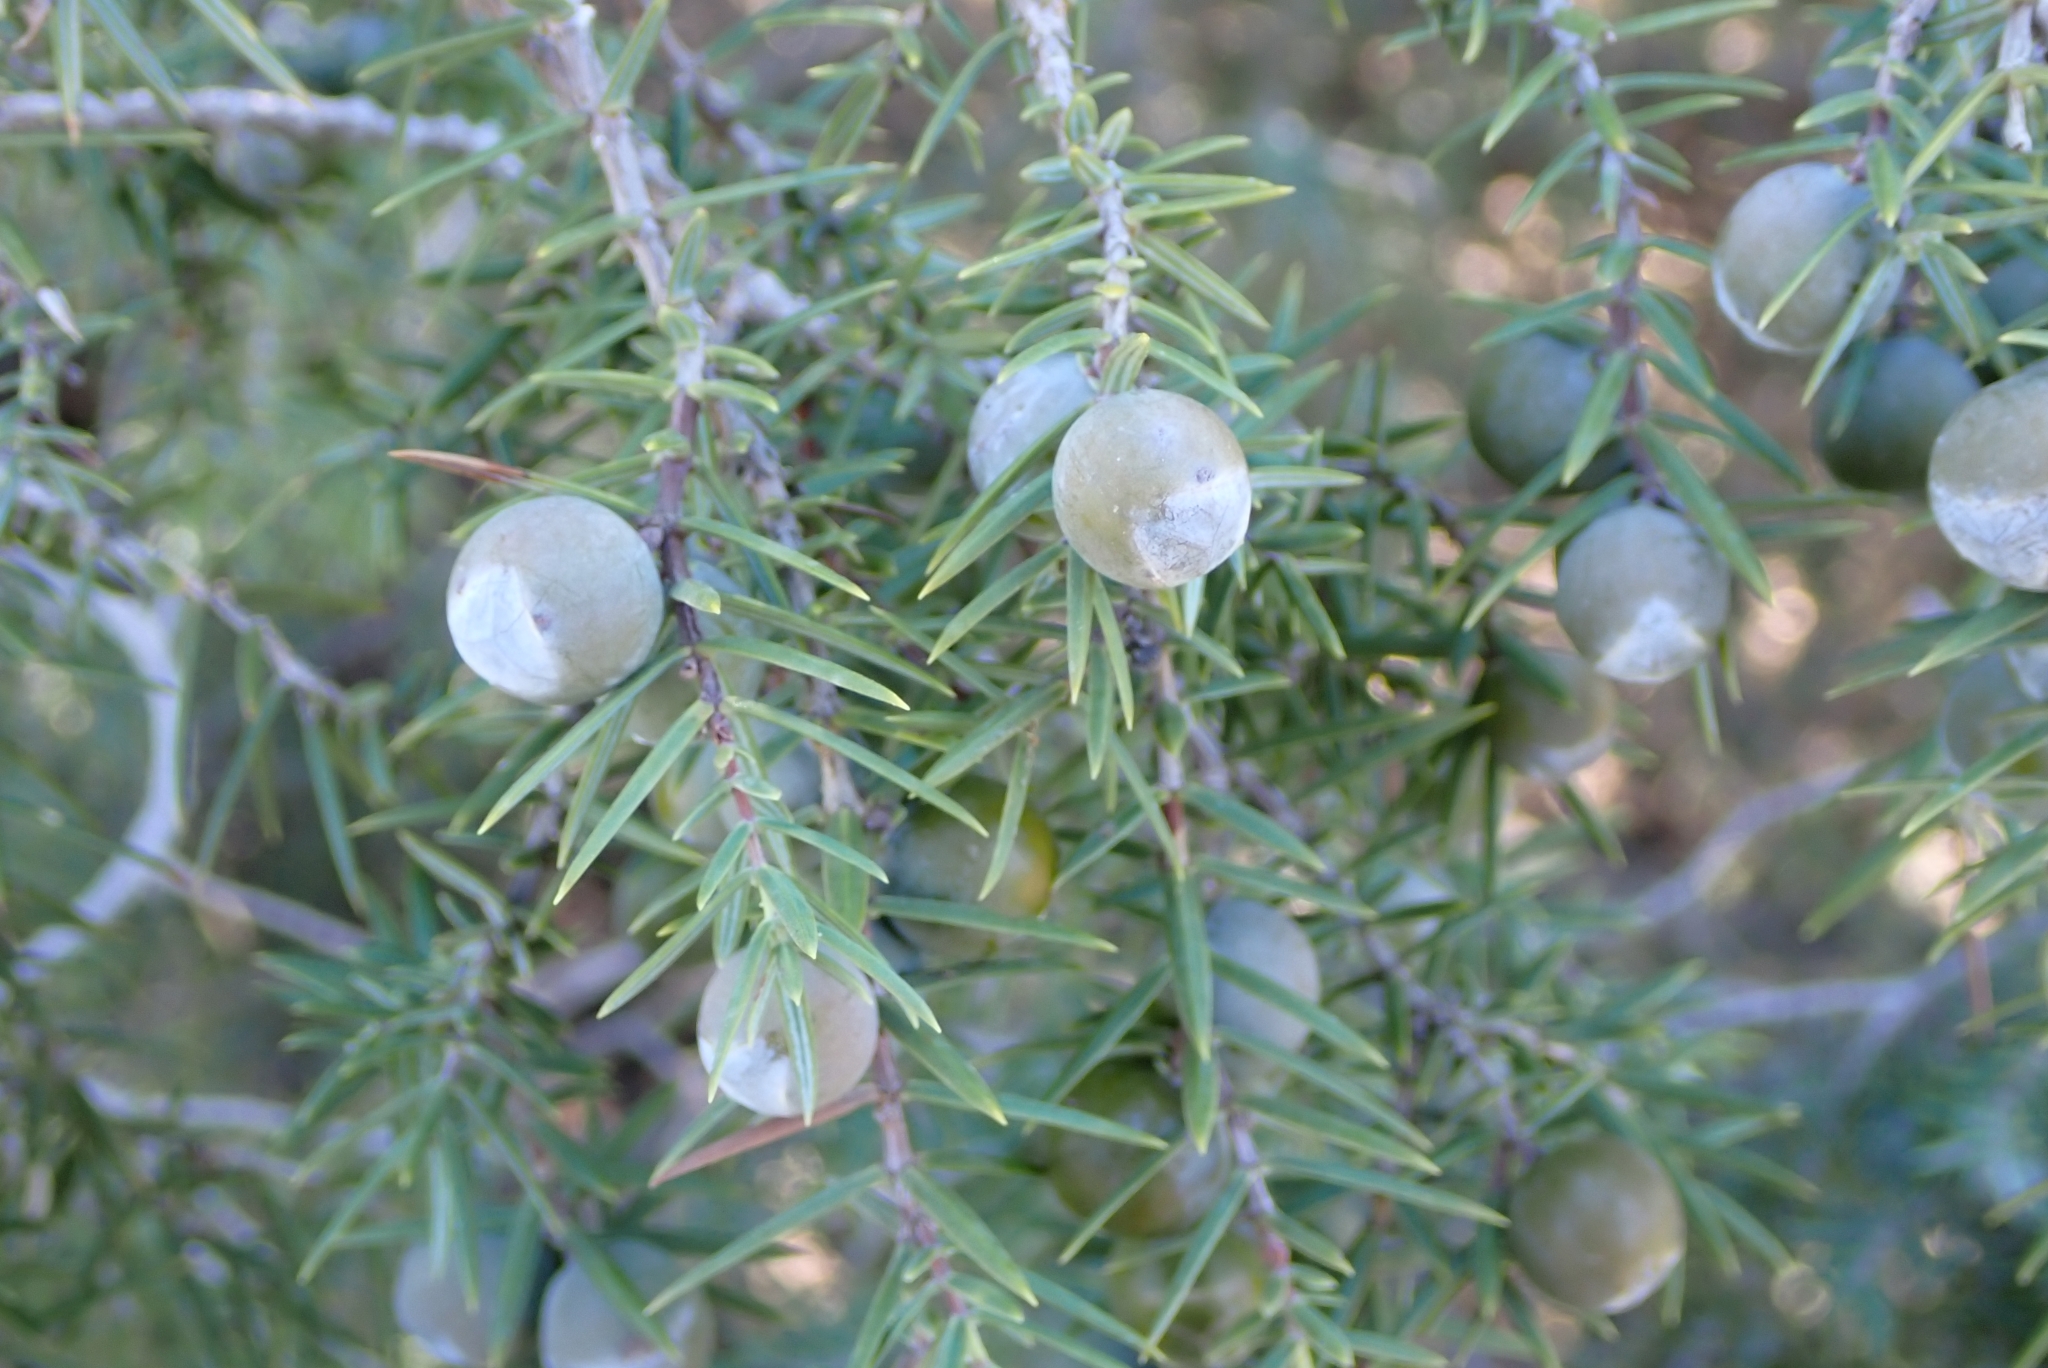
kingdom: Plantae
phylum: Tracheophyta
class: Pinopsida
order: Pinales
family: Cupressaceae
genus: Juniperus
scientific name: Juniperus oxycedrus
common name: Prickly juniper
